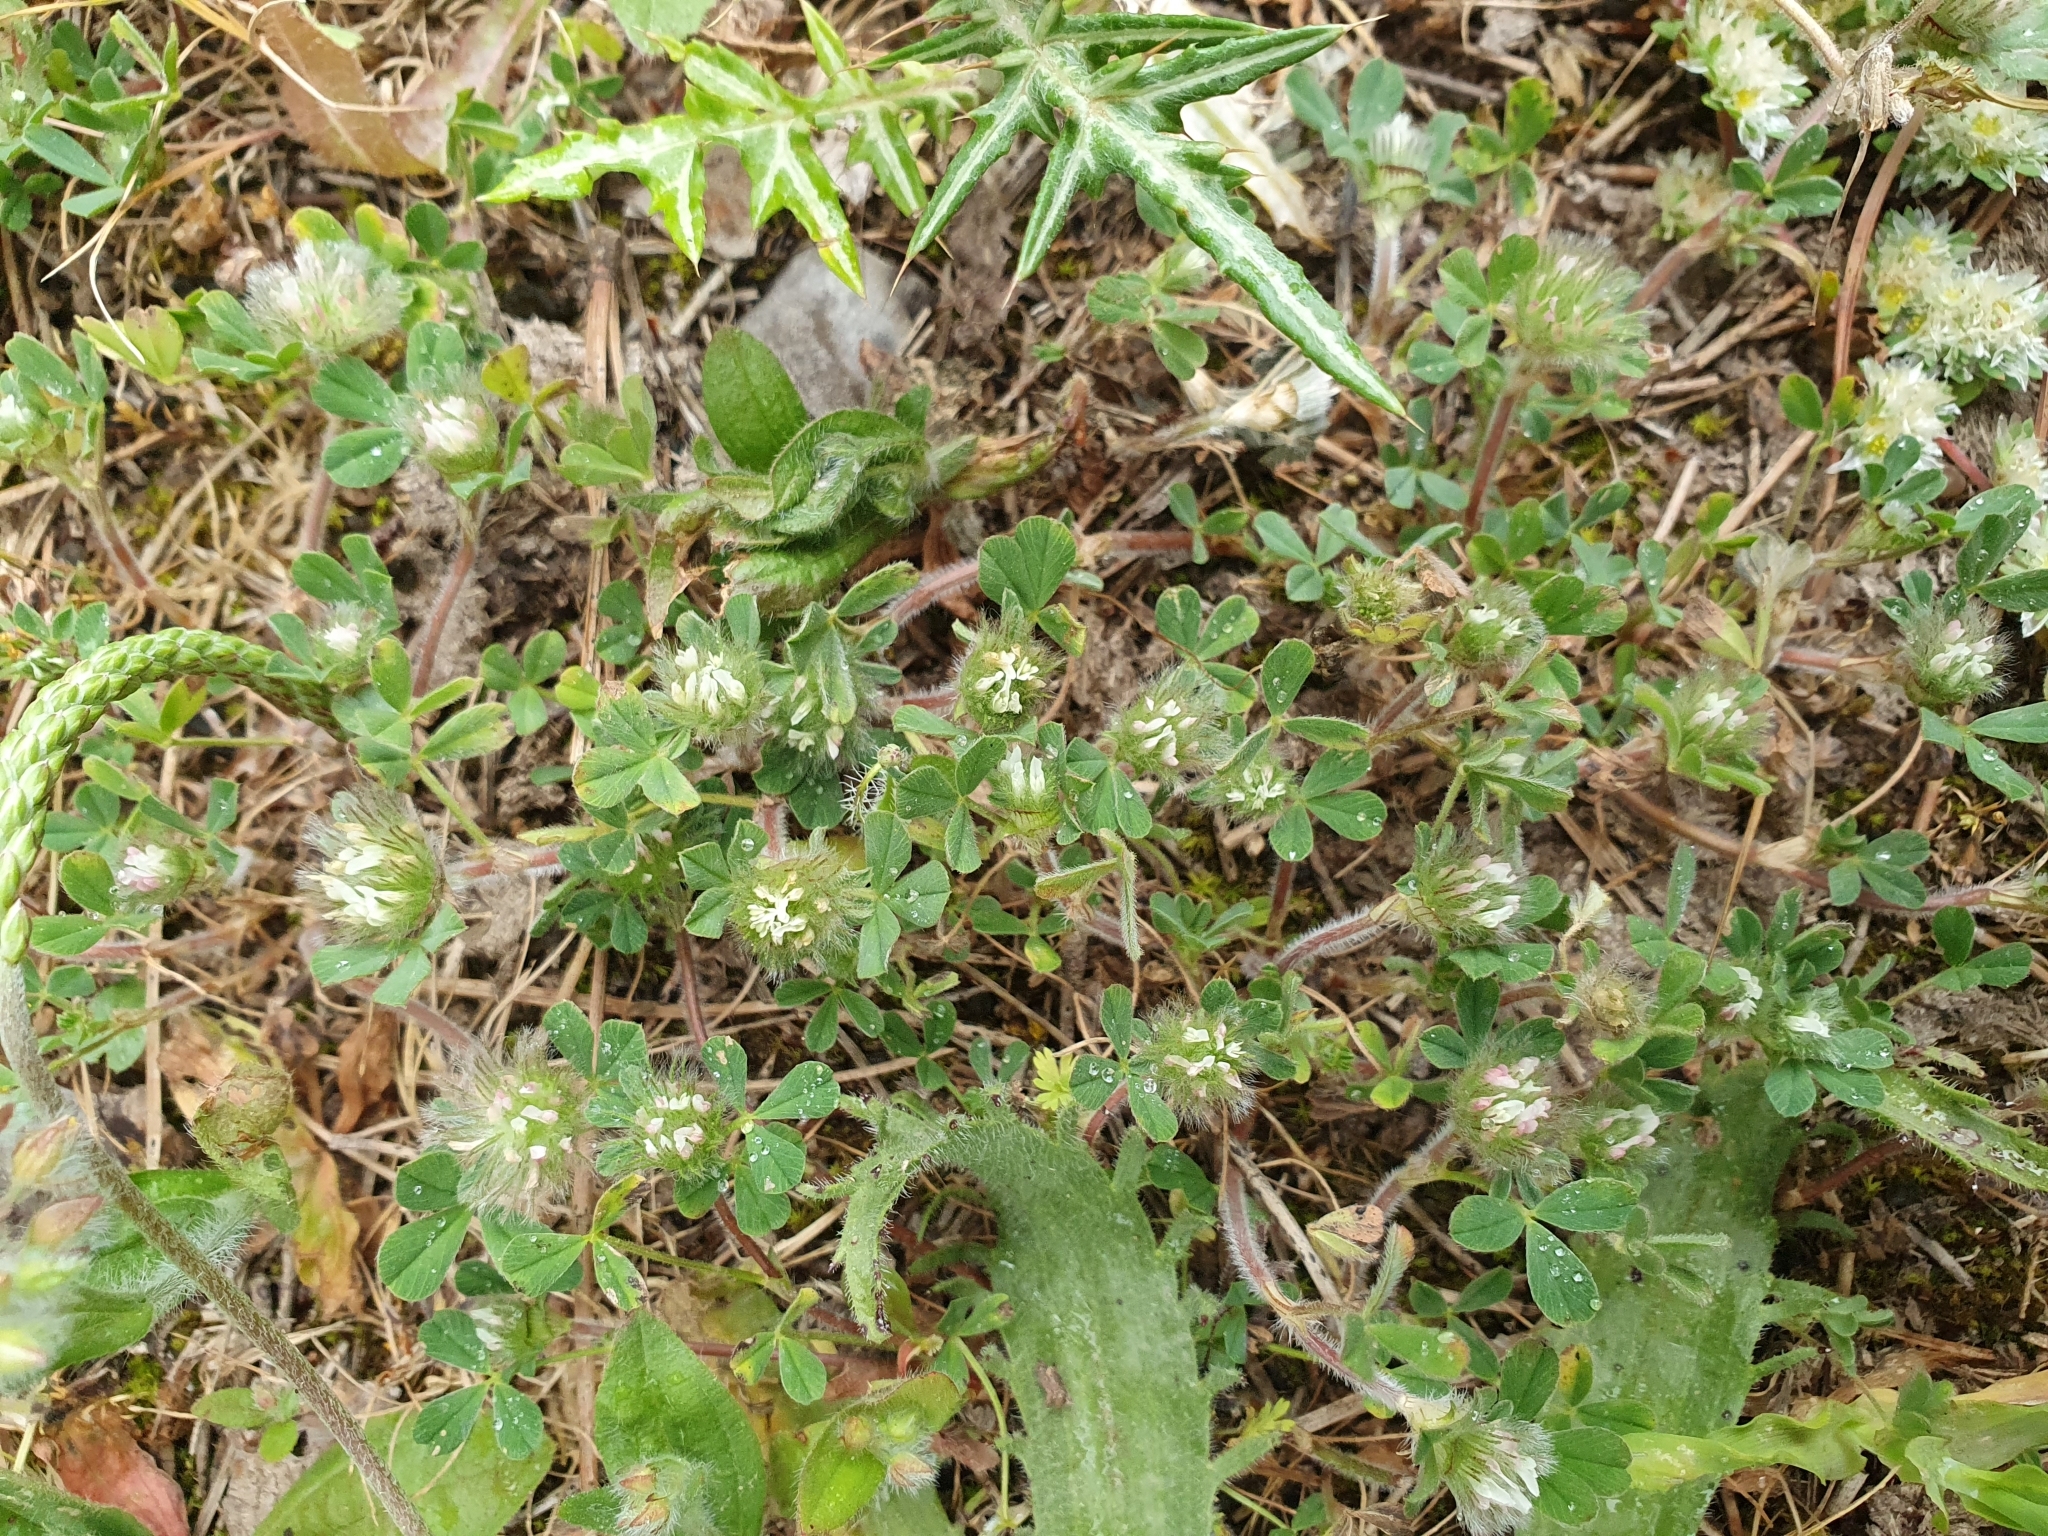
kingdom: Plantae
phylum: Tracheophyta
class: Magnoliopsida
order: Fabales
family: Fabaceae
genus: Trifolium
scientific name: Trifolium cherleri
